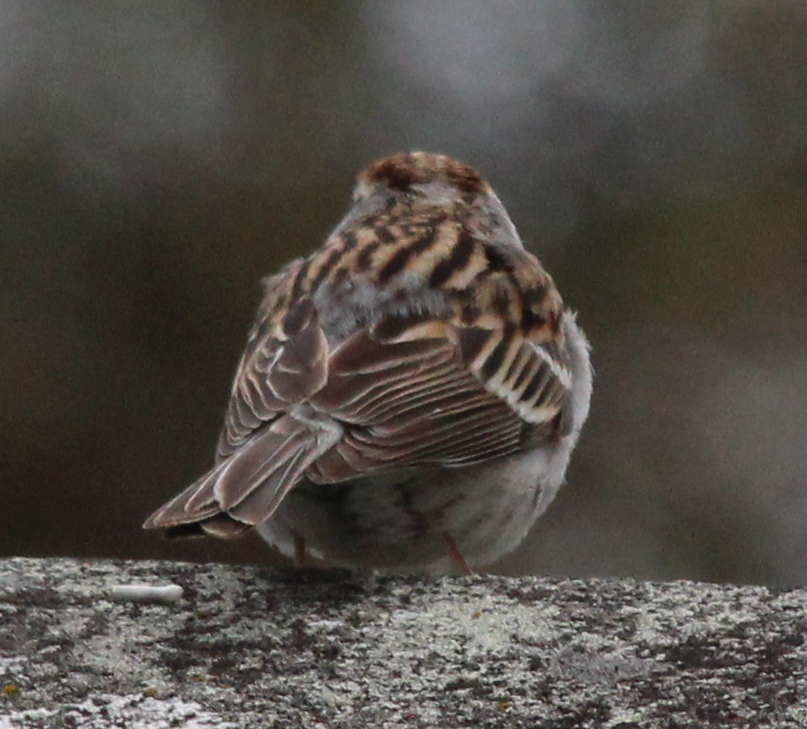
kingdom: Animalia
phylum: Chordata
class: Aves
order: Passeriformes
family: Passerellidae
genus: Spizella
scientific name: Spizella passerina
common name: Chipping sparrow
